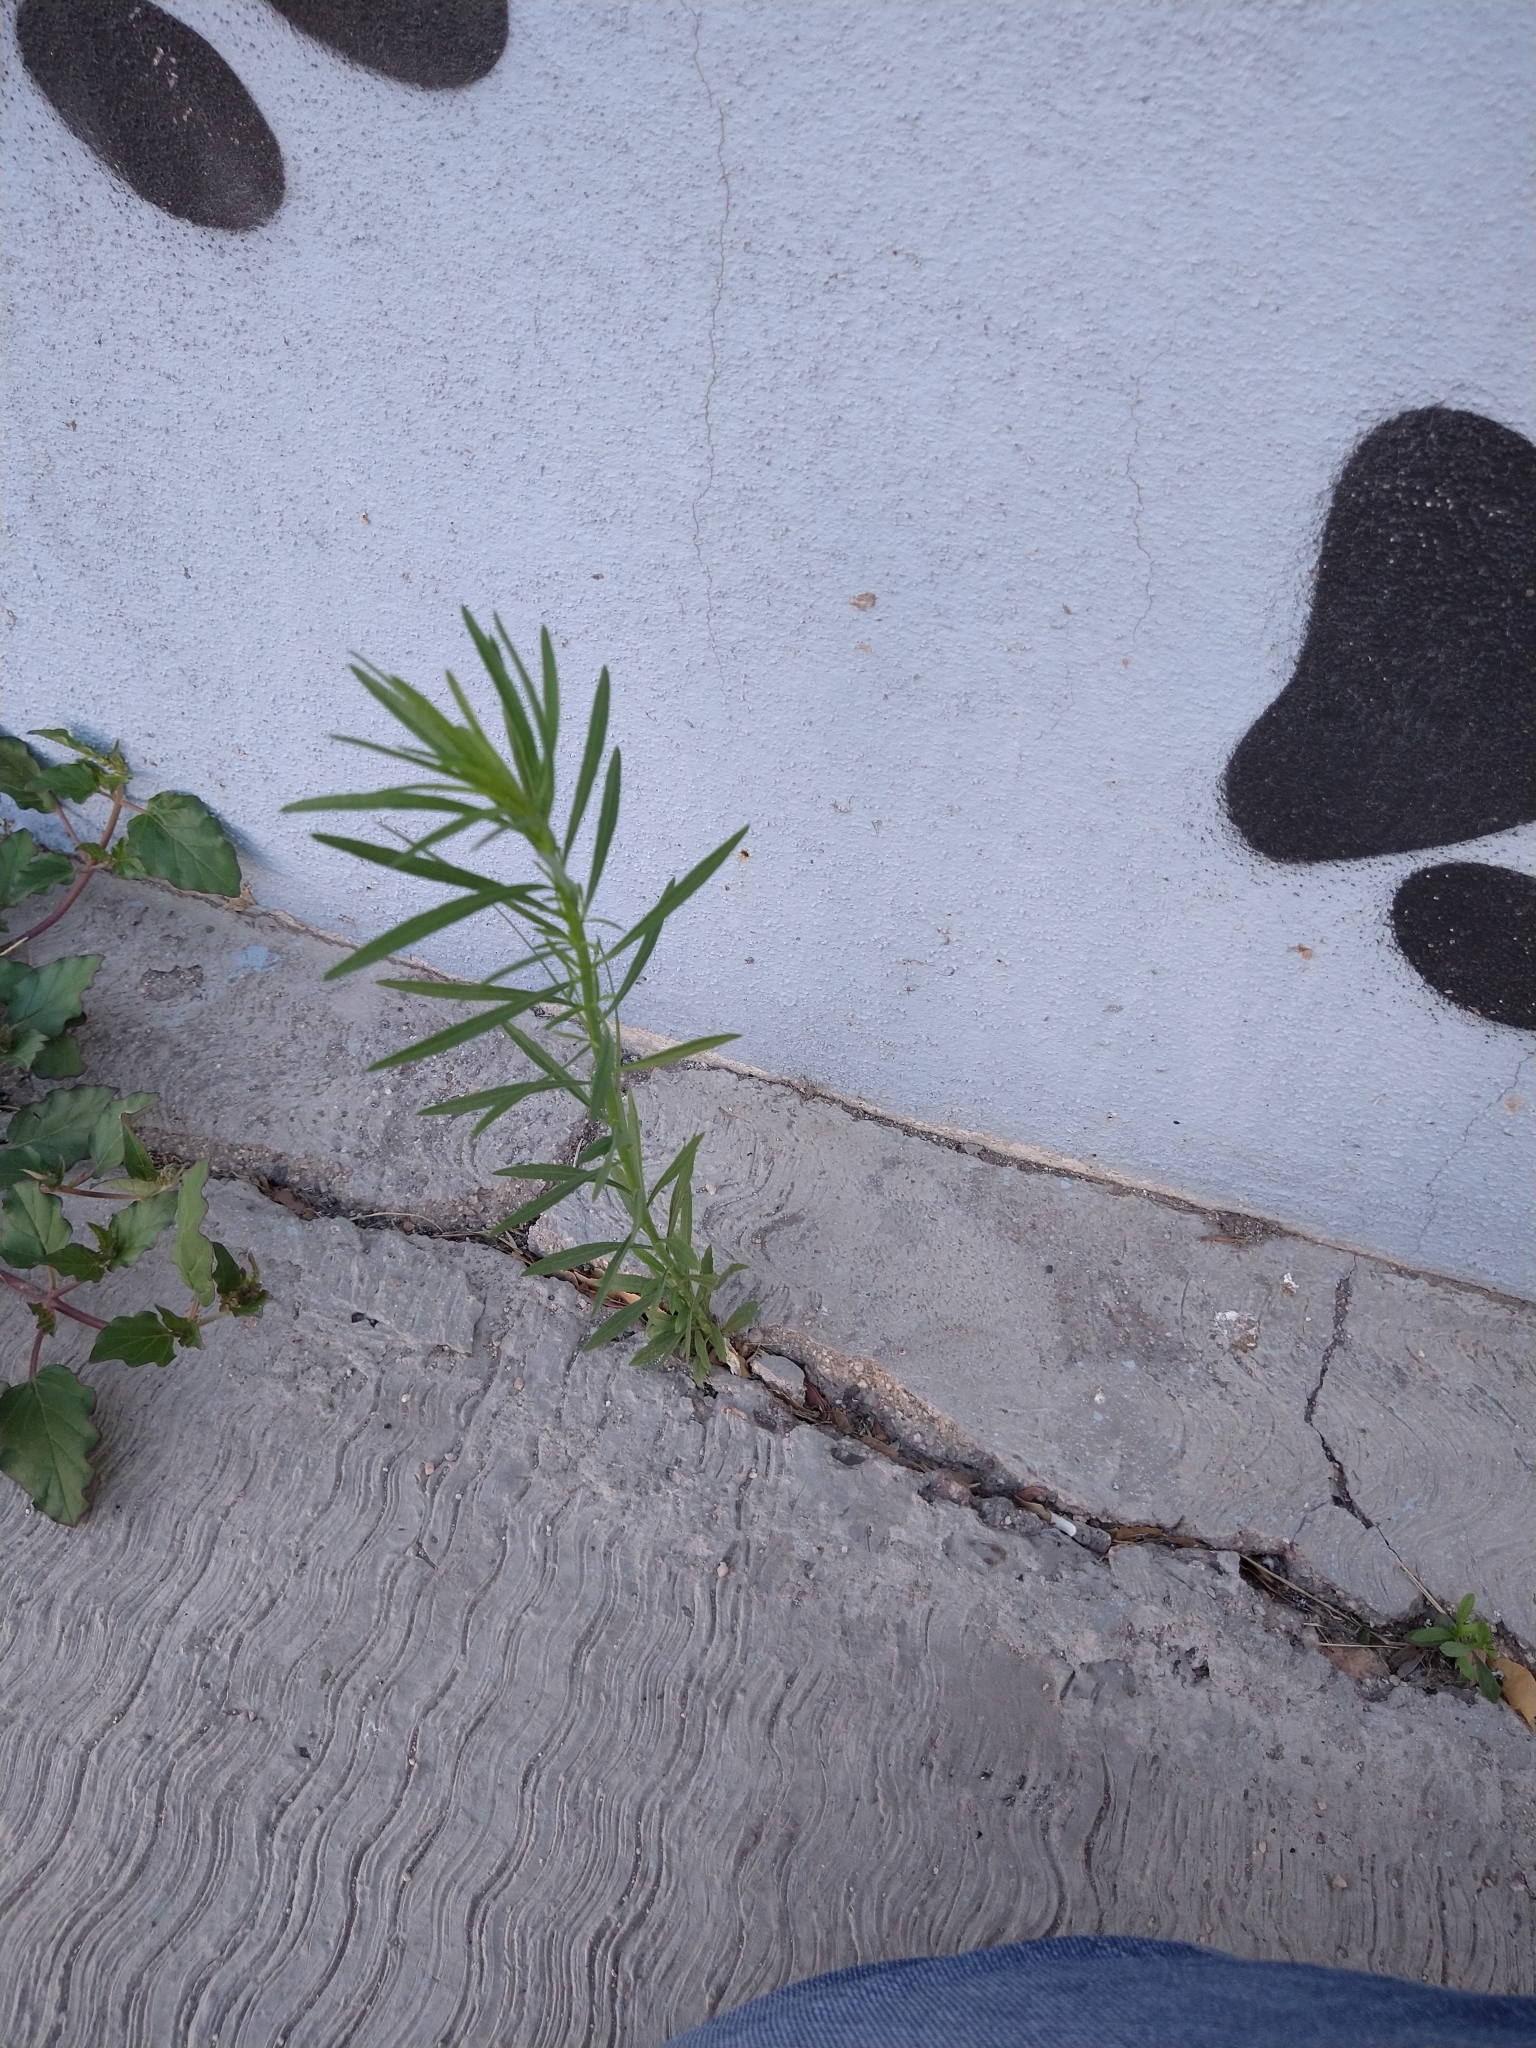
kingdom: Plantae
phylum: Tracheophyta
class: Magnoliopsida
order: Asterales
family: Asteraceae
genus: Erigeron
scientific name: Erigeron canadensis
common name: Canadian fleabane
